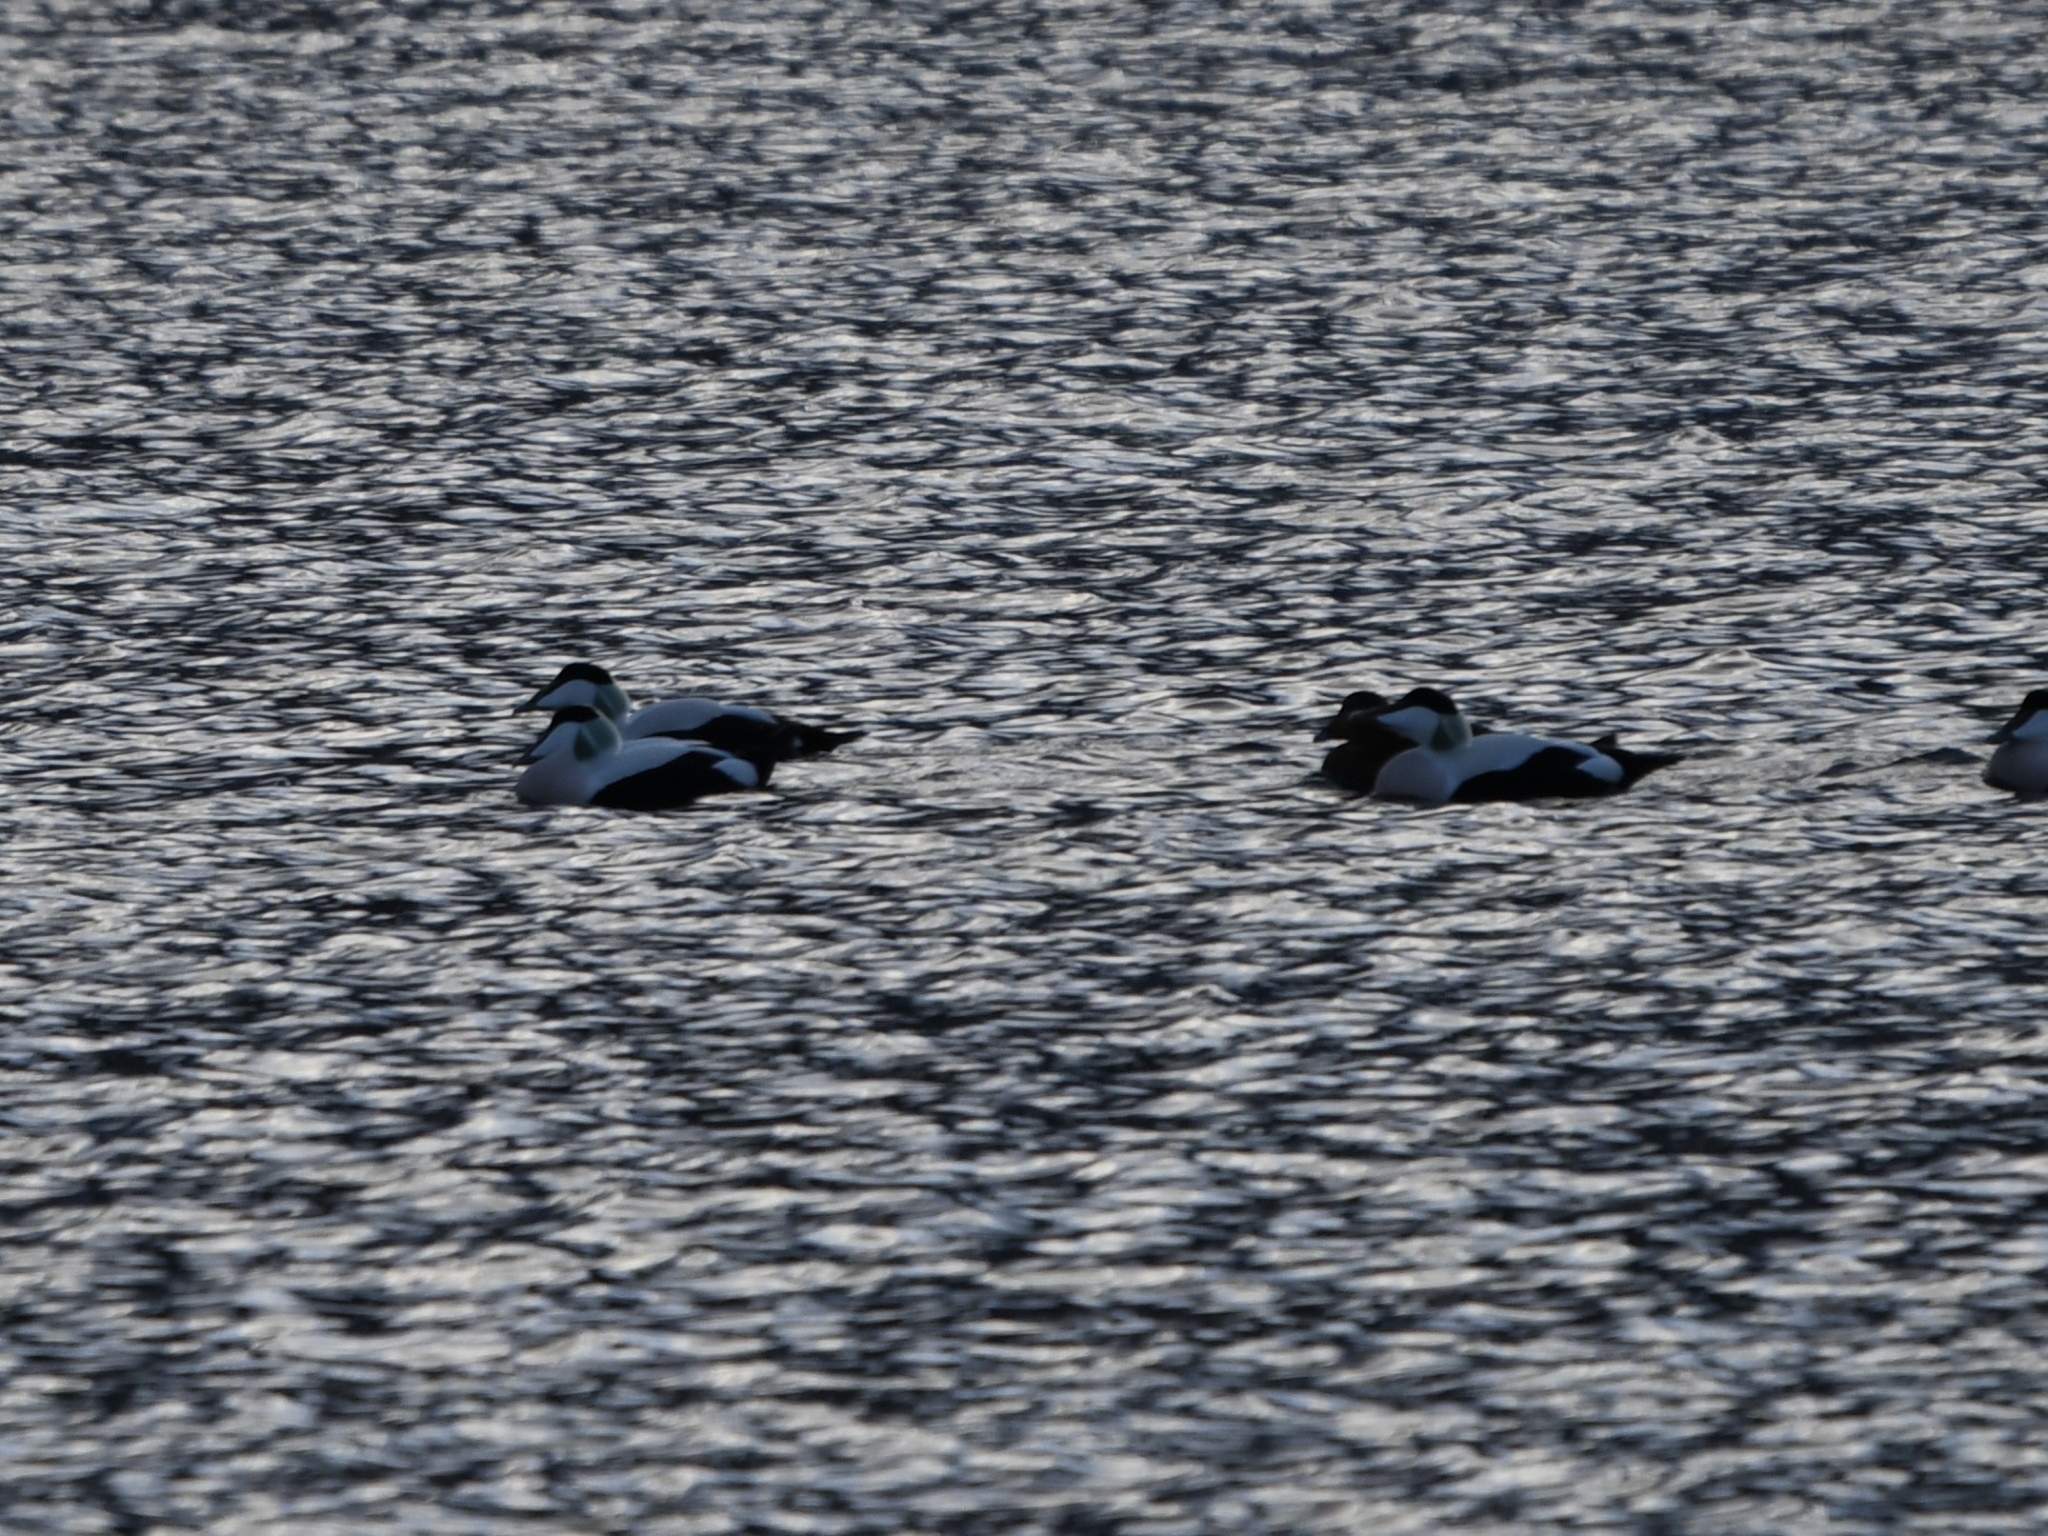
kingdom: Animalia
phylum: Chordata
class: Aves
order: Anseriformes
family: Anatidae
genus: Somateria
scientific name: Somateria mollissima
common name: Common eider
